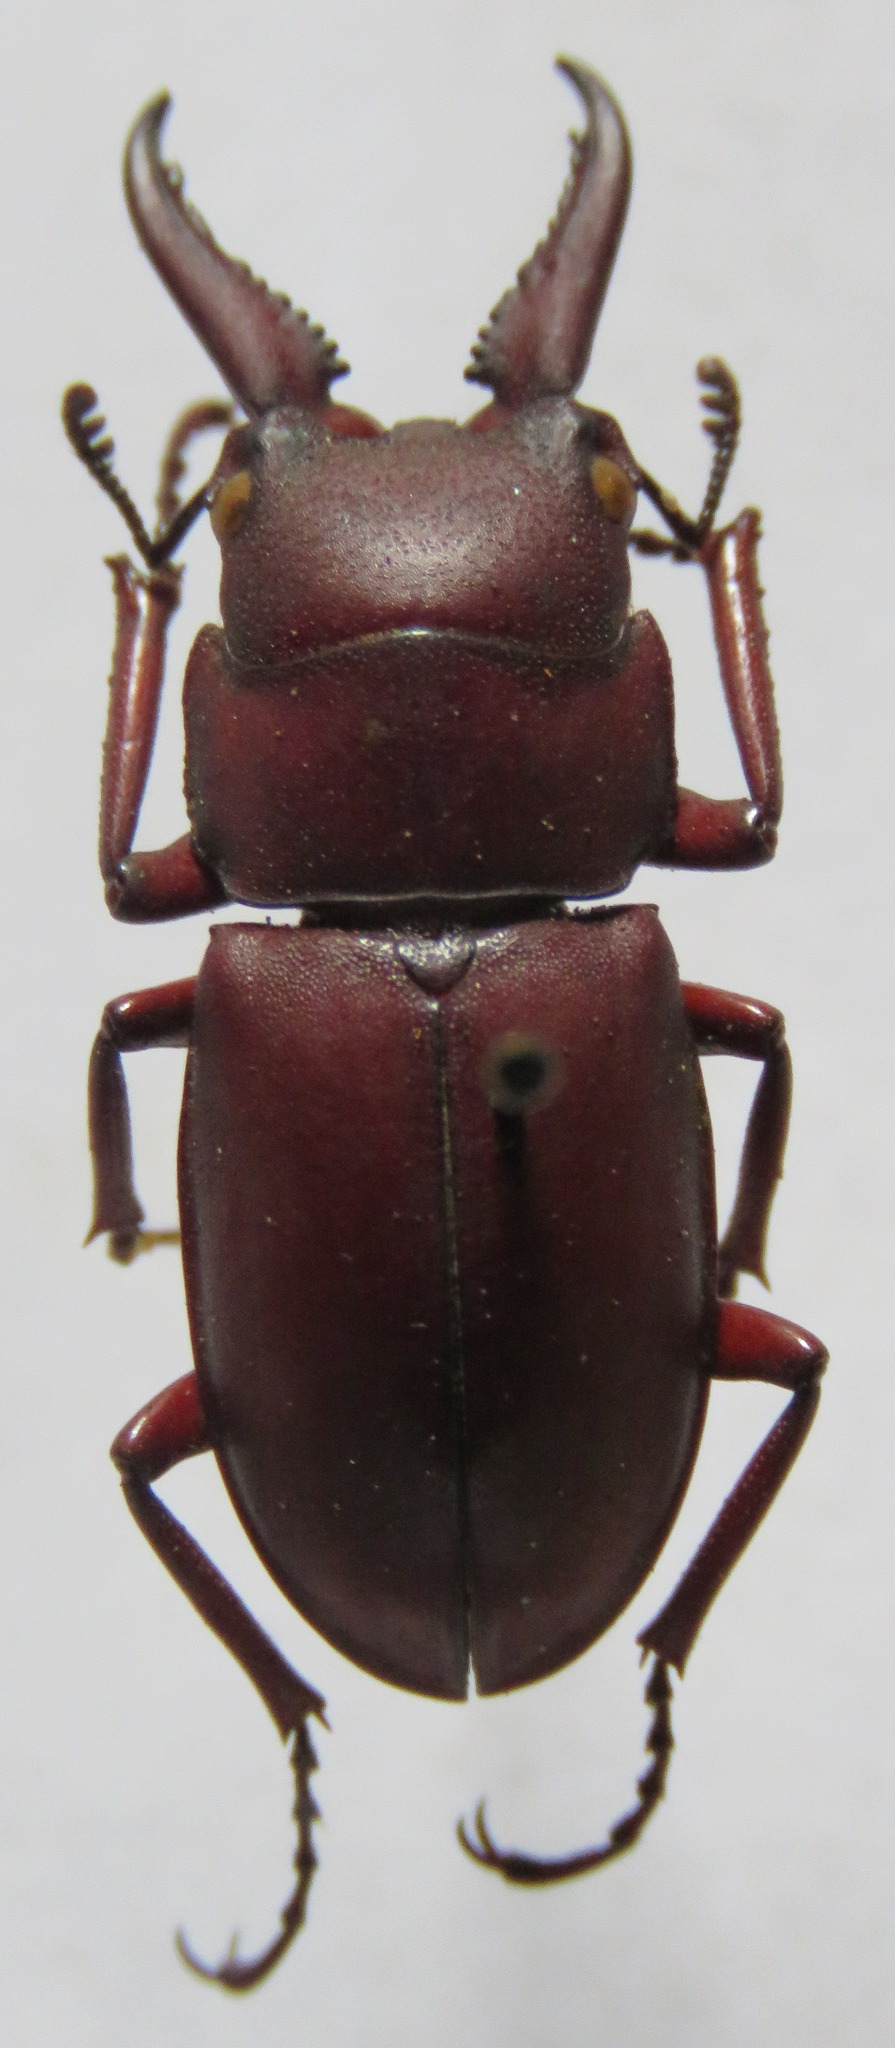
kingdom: Animalia
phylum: Arthropoda
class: Insecta
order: Coleoptera
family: Lucanidae
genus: Prosopocoilus
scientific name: Prosopocoilus macclellandi
